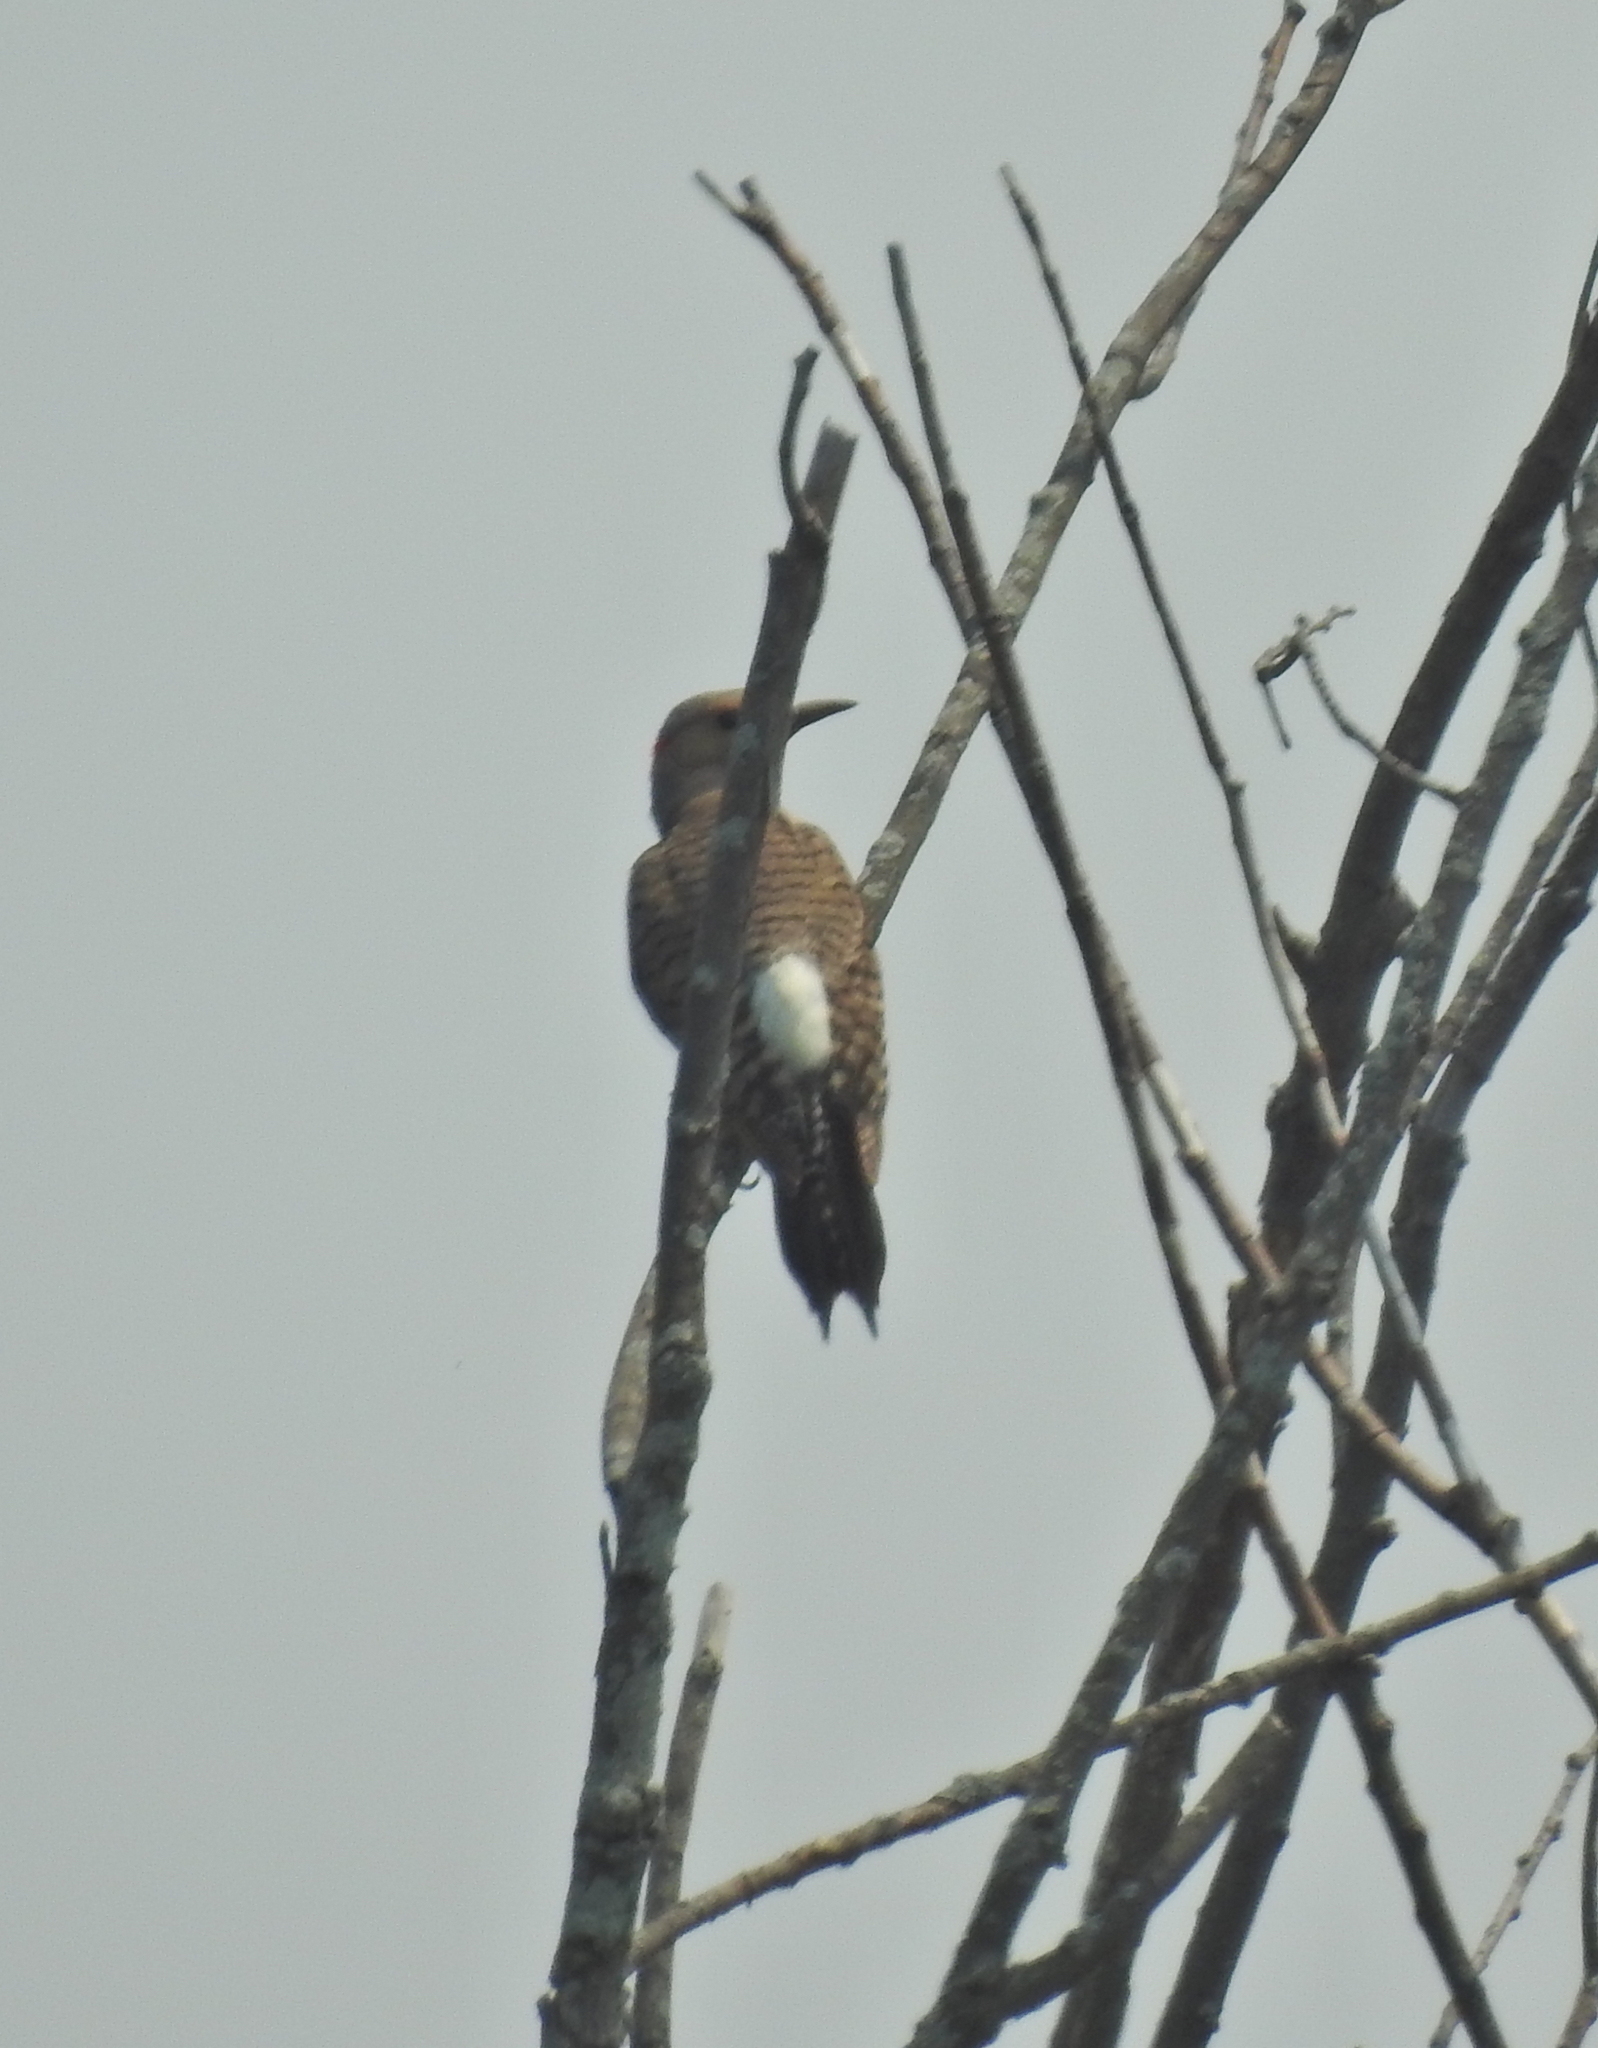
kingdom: Animalia
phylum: Chordata
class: Aves
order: Piciformes
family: Picidae
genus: Colaptes
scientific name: Colaptes auratus
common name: Northern flicker
